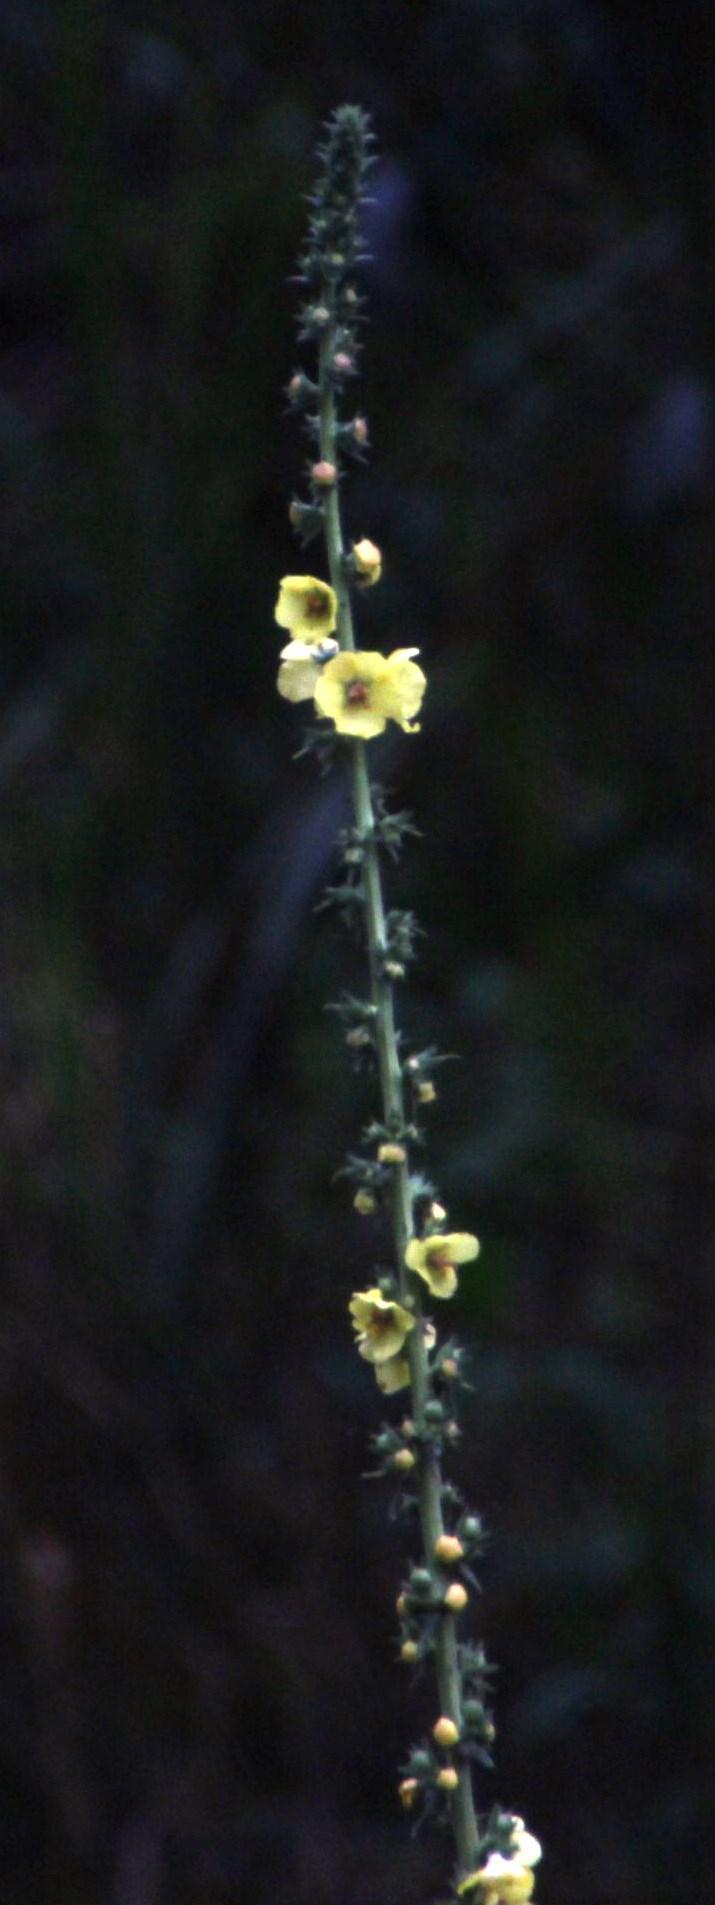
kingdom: Plantae
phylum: Tracheophyta
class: Magnoliopsida
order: Lamiales
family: Scrophulariaceae
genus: Verbascum
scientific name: Verbascum virgatum
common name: Twiggy mullein
